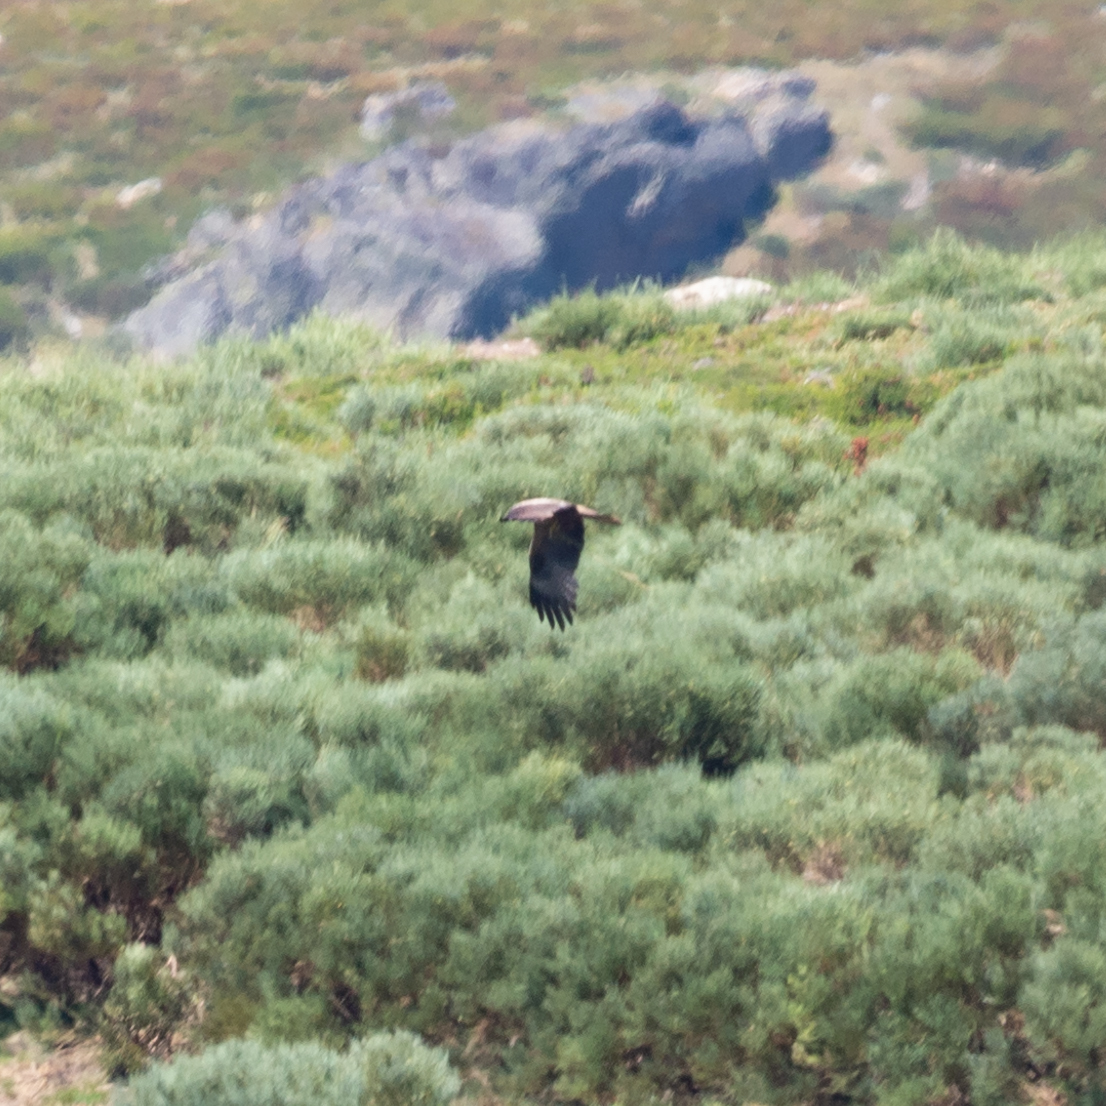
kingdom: Animalia
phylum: Chordata
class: Aves
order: Accipitriformes
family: Accipitridae
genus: Milvus
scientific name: Milvus migrans
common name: Black kite
